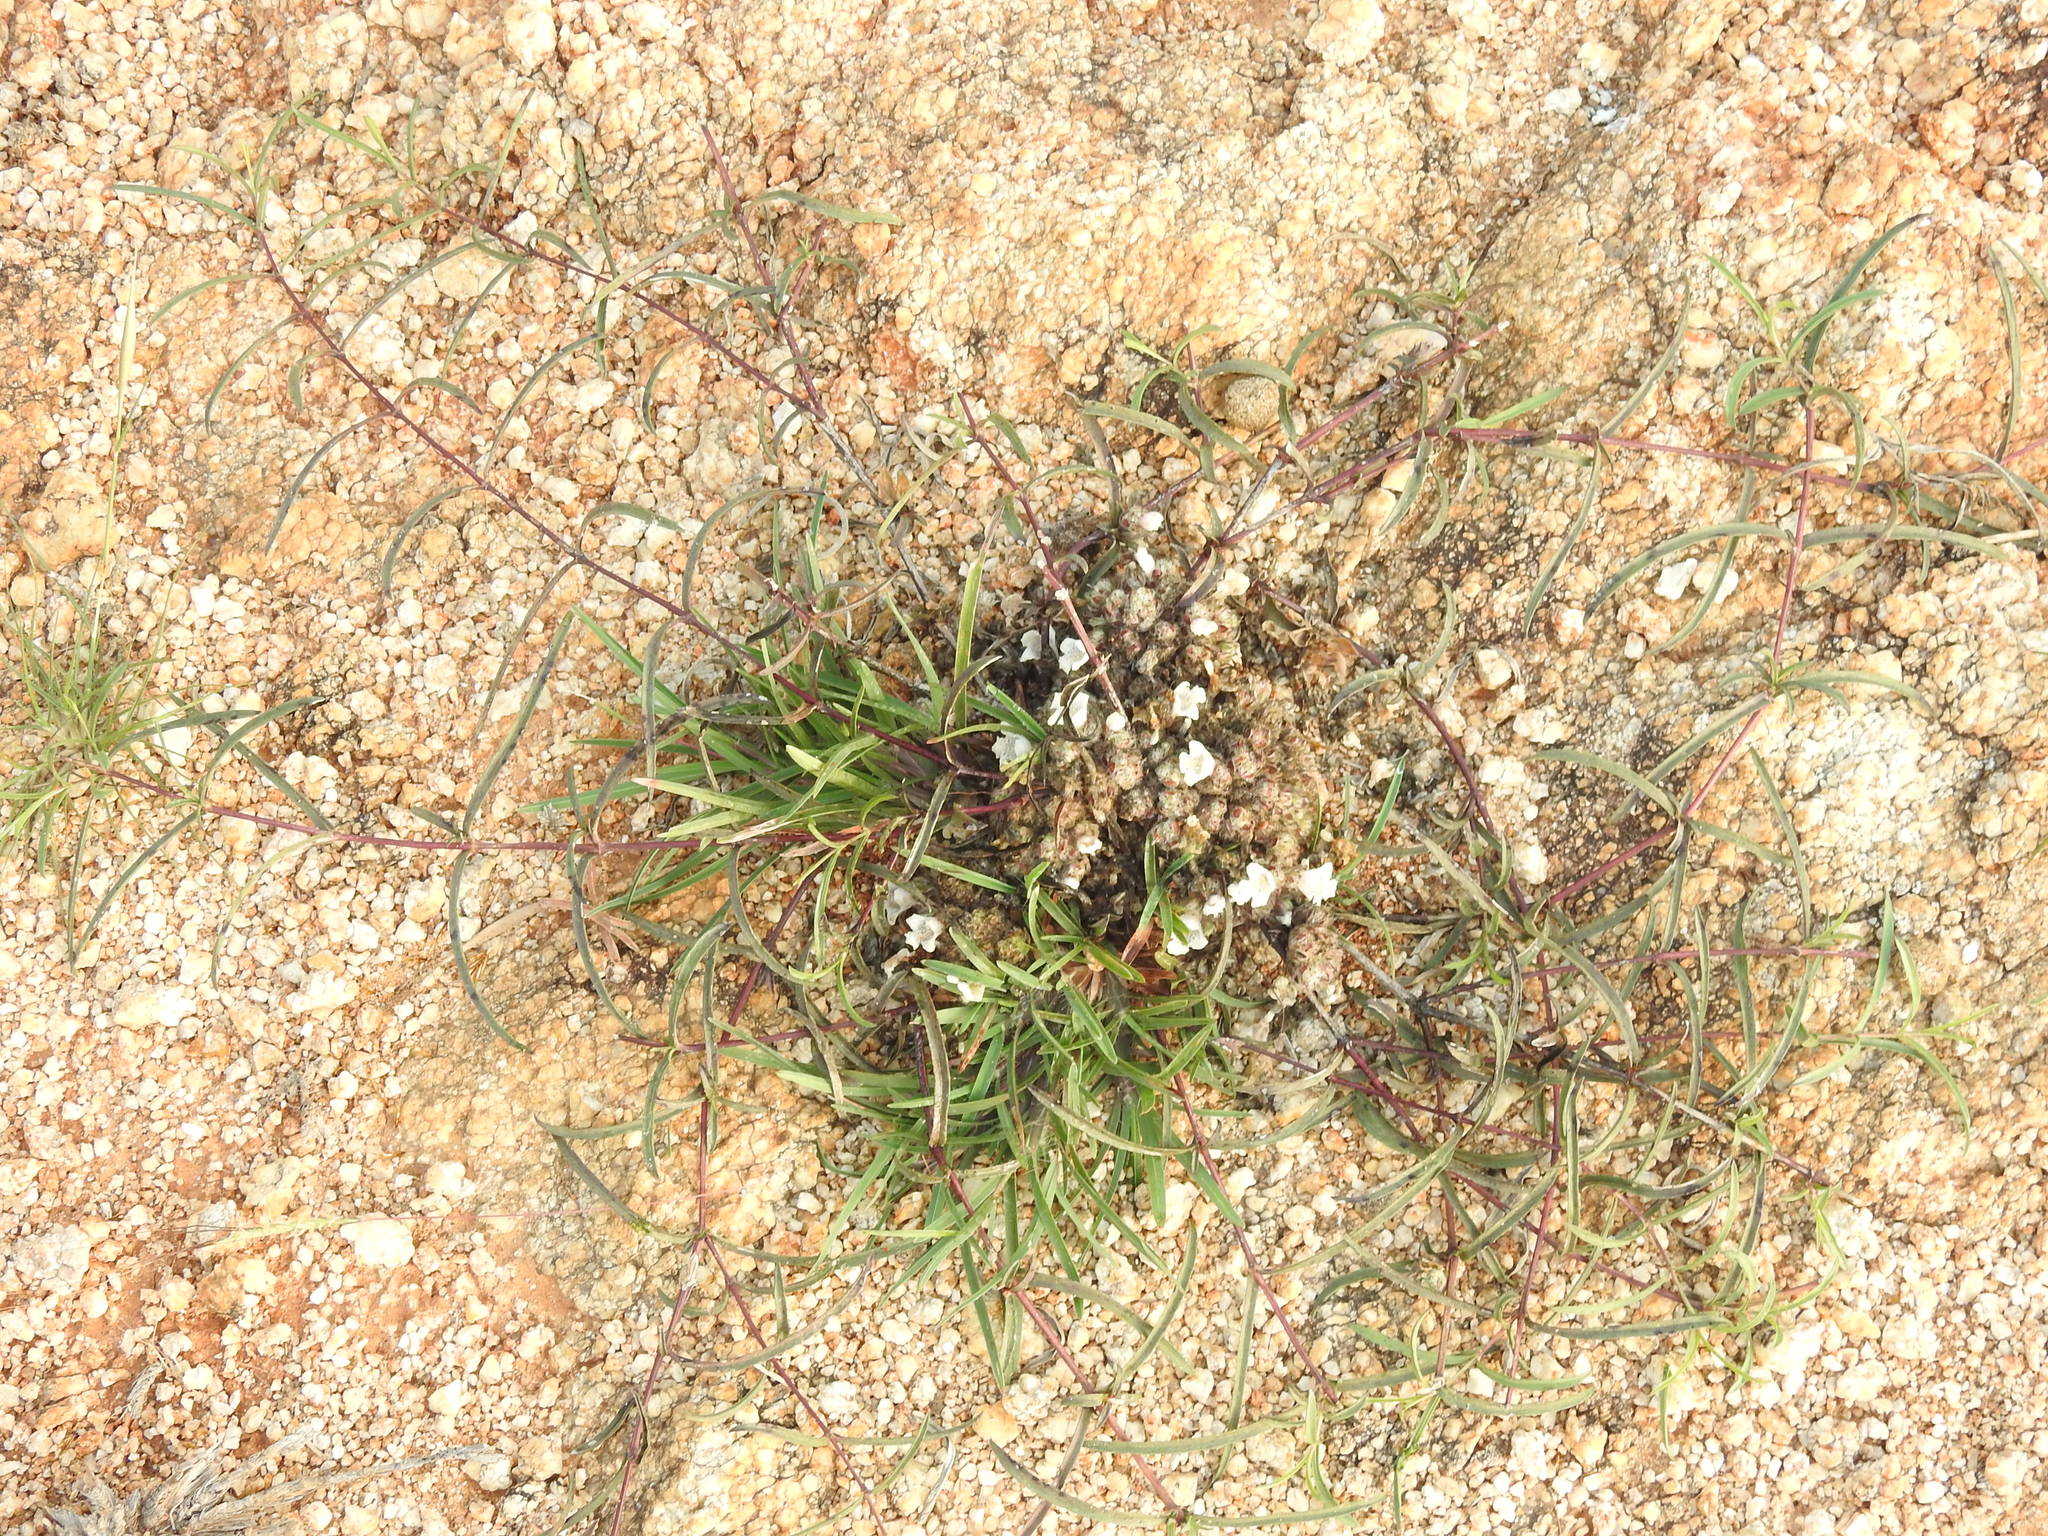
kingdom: Plantae
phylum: Tracheophyta
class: Magnoliopsida
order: Lamiales
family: Acanthaceae
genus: Lepidagathis
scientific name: Lepidagathis cristata
